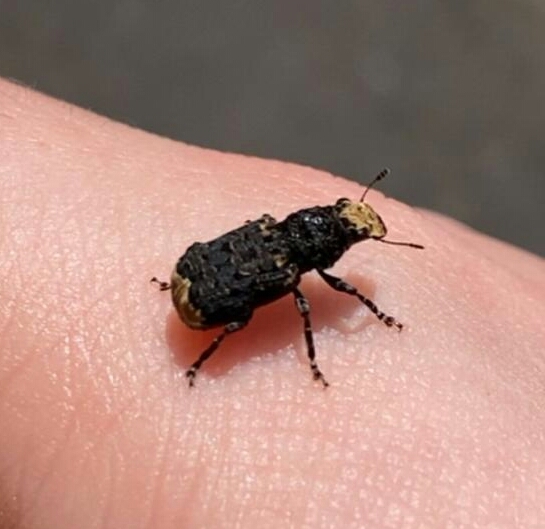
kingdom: Animalia
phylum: Arthropoda
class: Insecta
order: Coleoptera
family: Anthribidae
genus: Platyrhinus
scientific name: Platyrhinus resinosus
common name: Cramp-ball fungus weevil
